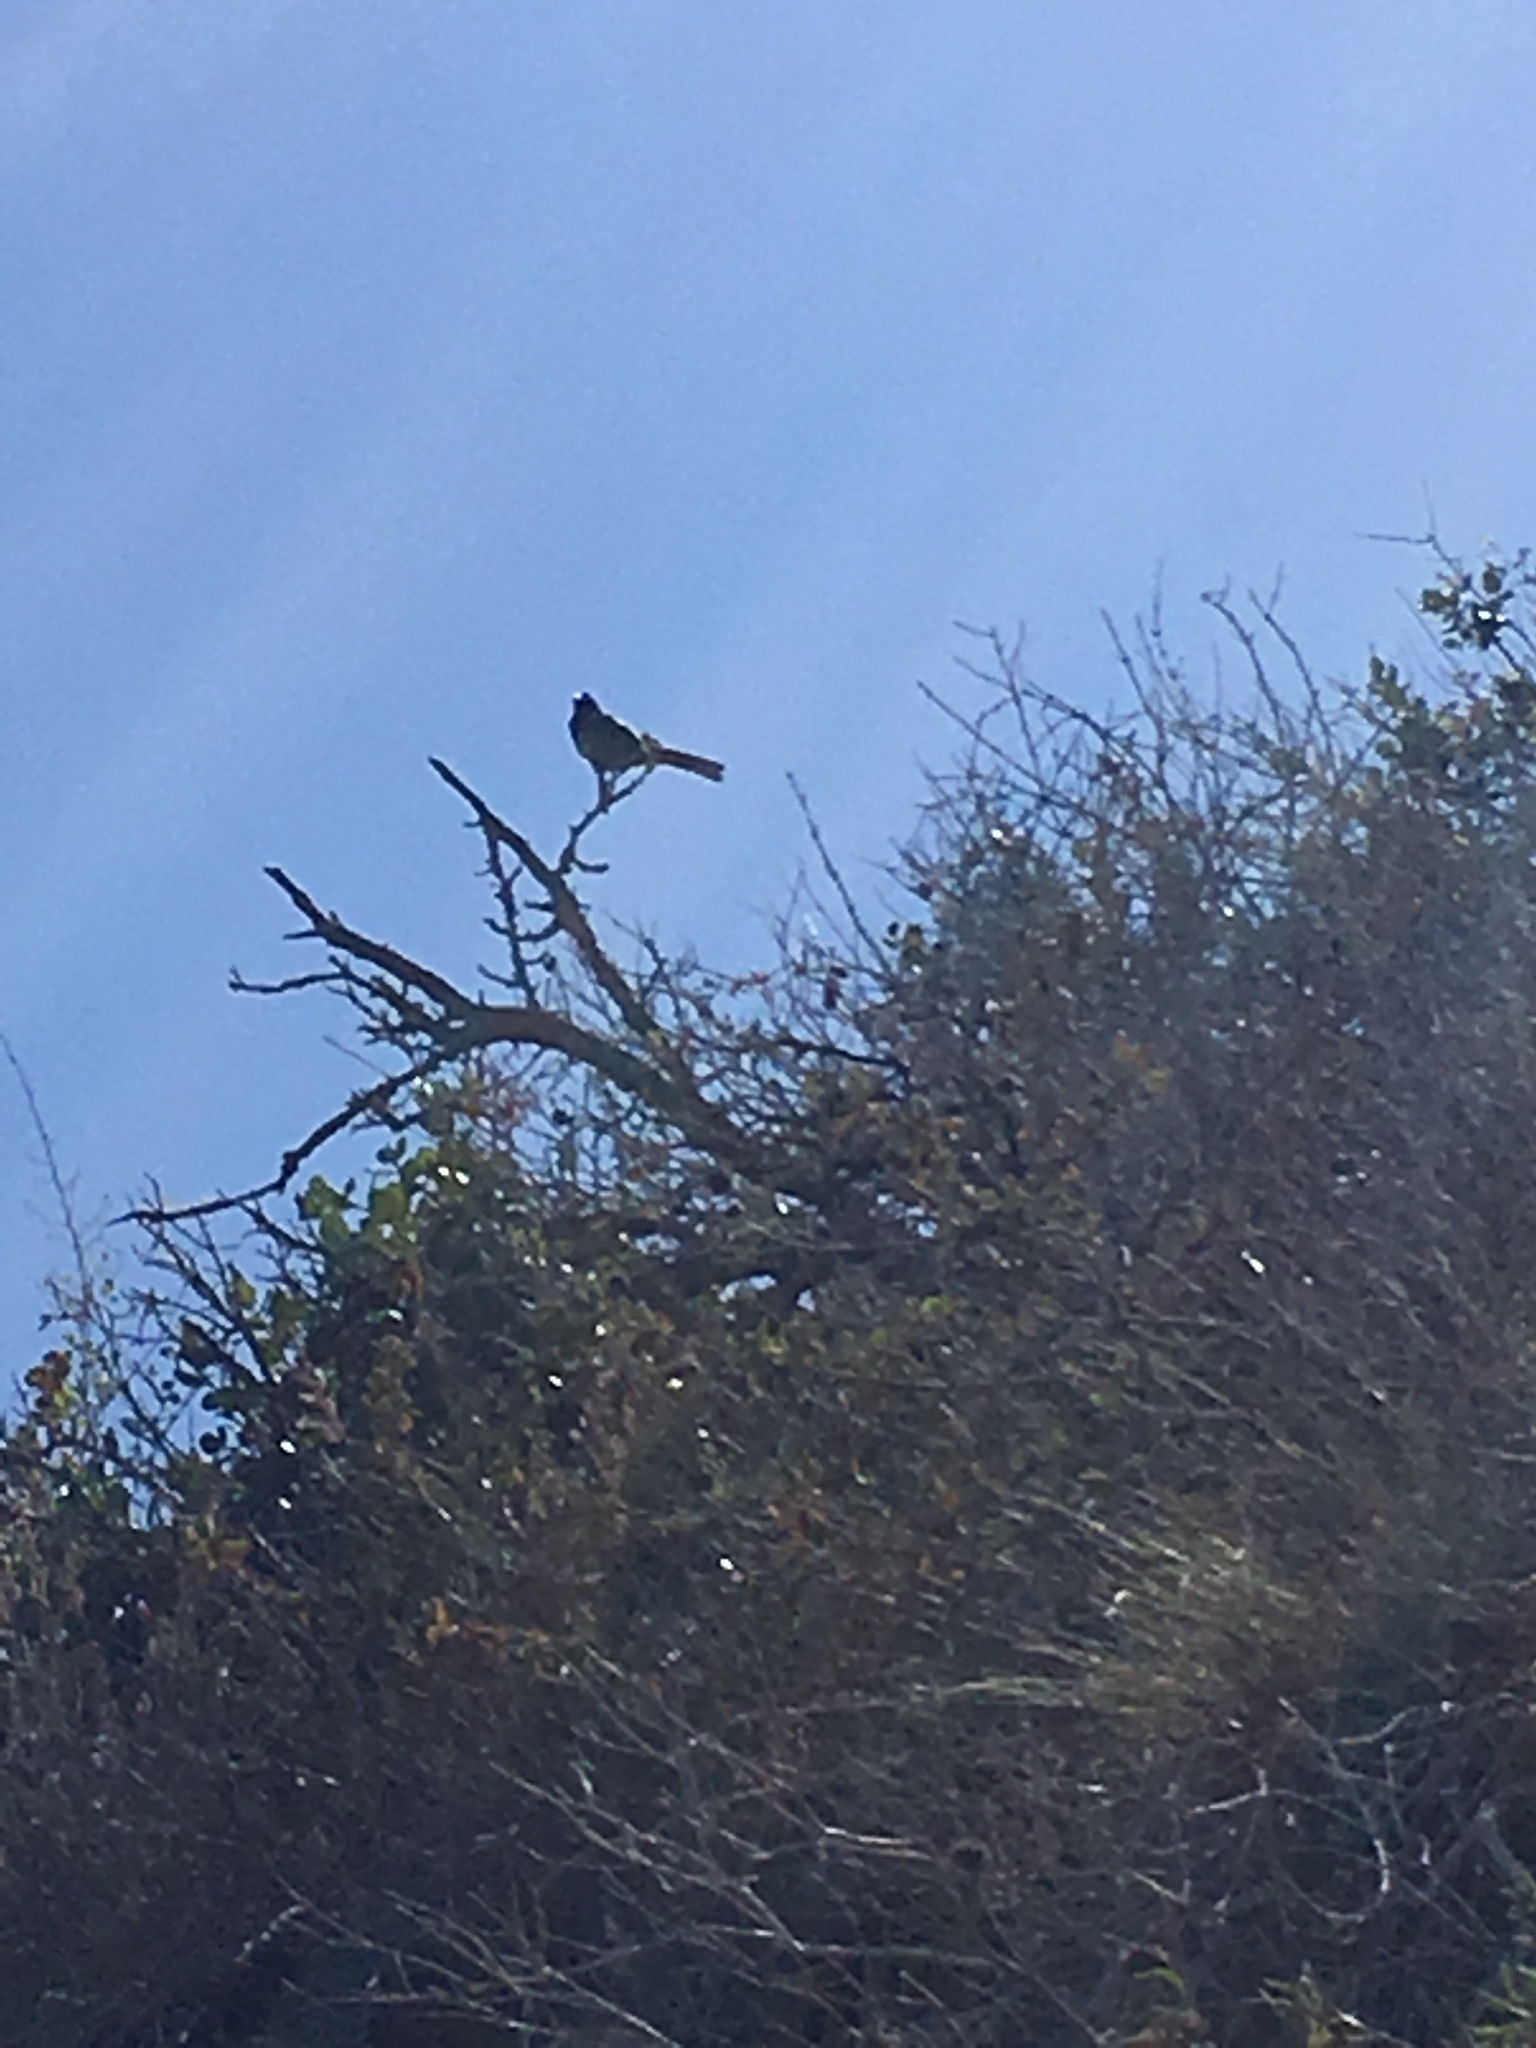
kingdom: Animalia
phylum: Chordata
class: Aves
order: Passeriformes
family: Passerellidae
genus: Pipilo
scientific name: Pipilo maculatus
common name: Spotted towhee
